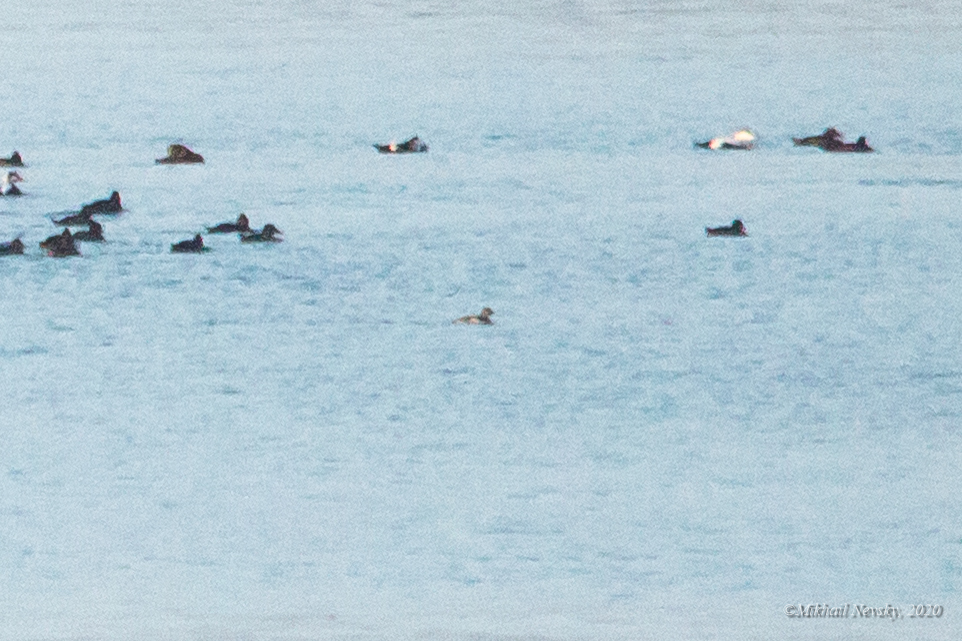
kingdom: Animalia
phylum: Chordata
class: Aves
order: Anseriformes
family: Anatidae
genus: Polysticta
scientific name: Polysticta stelleri
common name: Steller's eider
